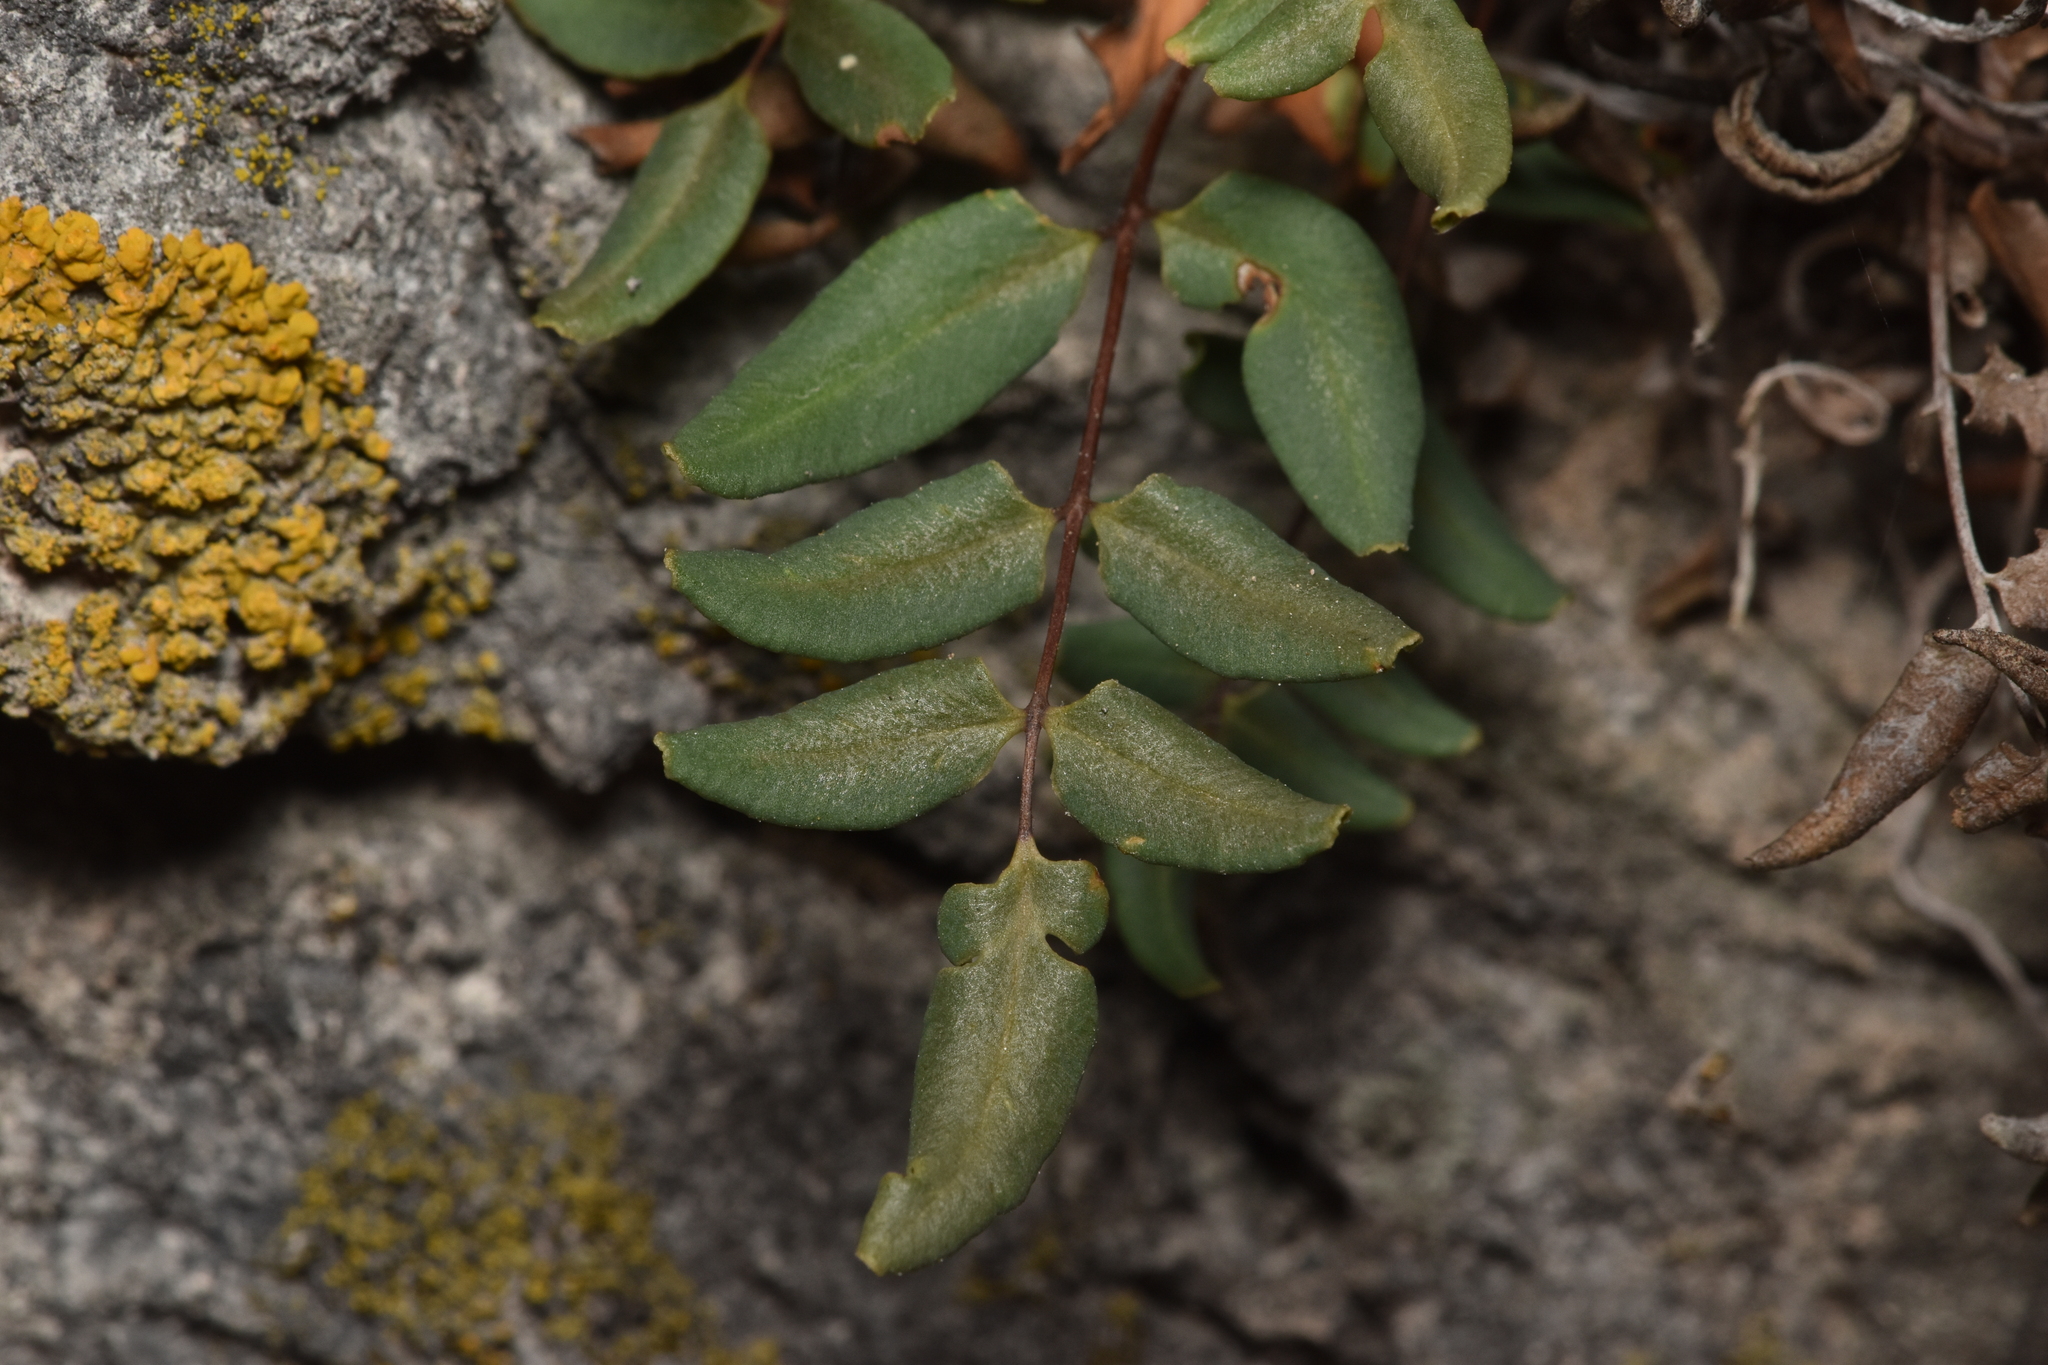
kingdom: Plantae
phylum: Tracheophyta
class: Polypodiopsida
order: Polypodiales
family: Pteridaceae
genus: Pellaea
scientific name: Pellaea glabella
